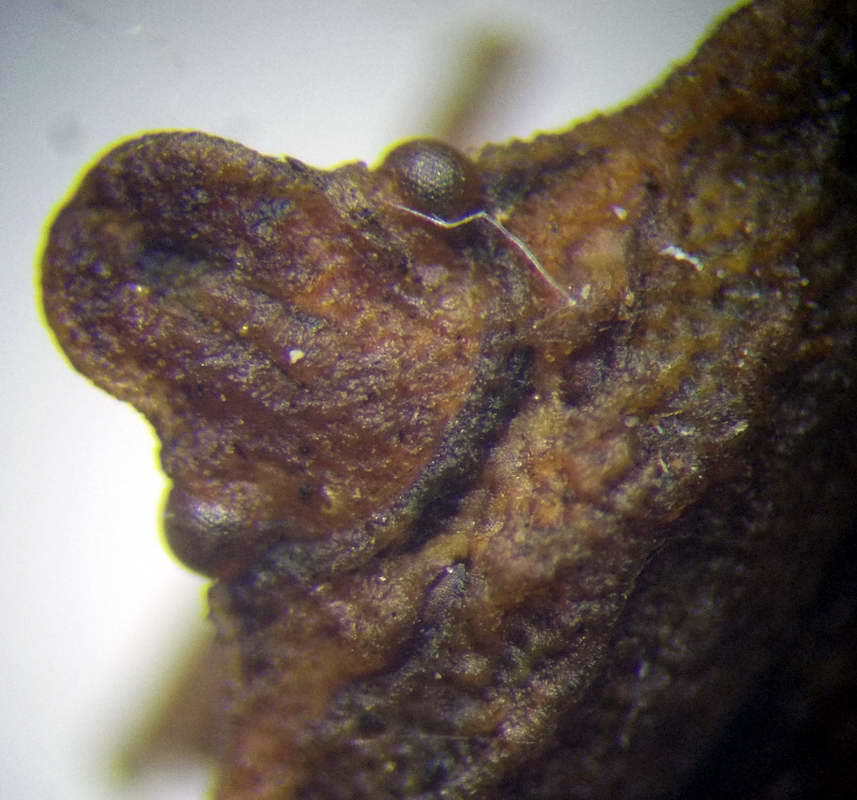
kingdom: Animalia
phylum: Arthropoda
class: Insecta
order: Hemiptera
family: Pentatomidae
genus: Leprosoma
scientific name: Leprosoma inconspicuum
